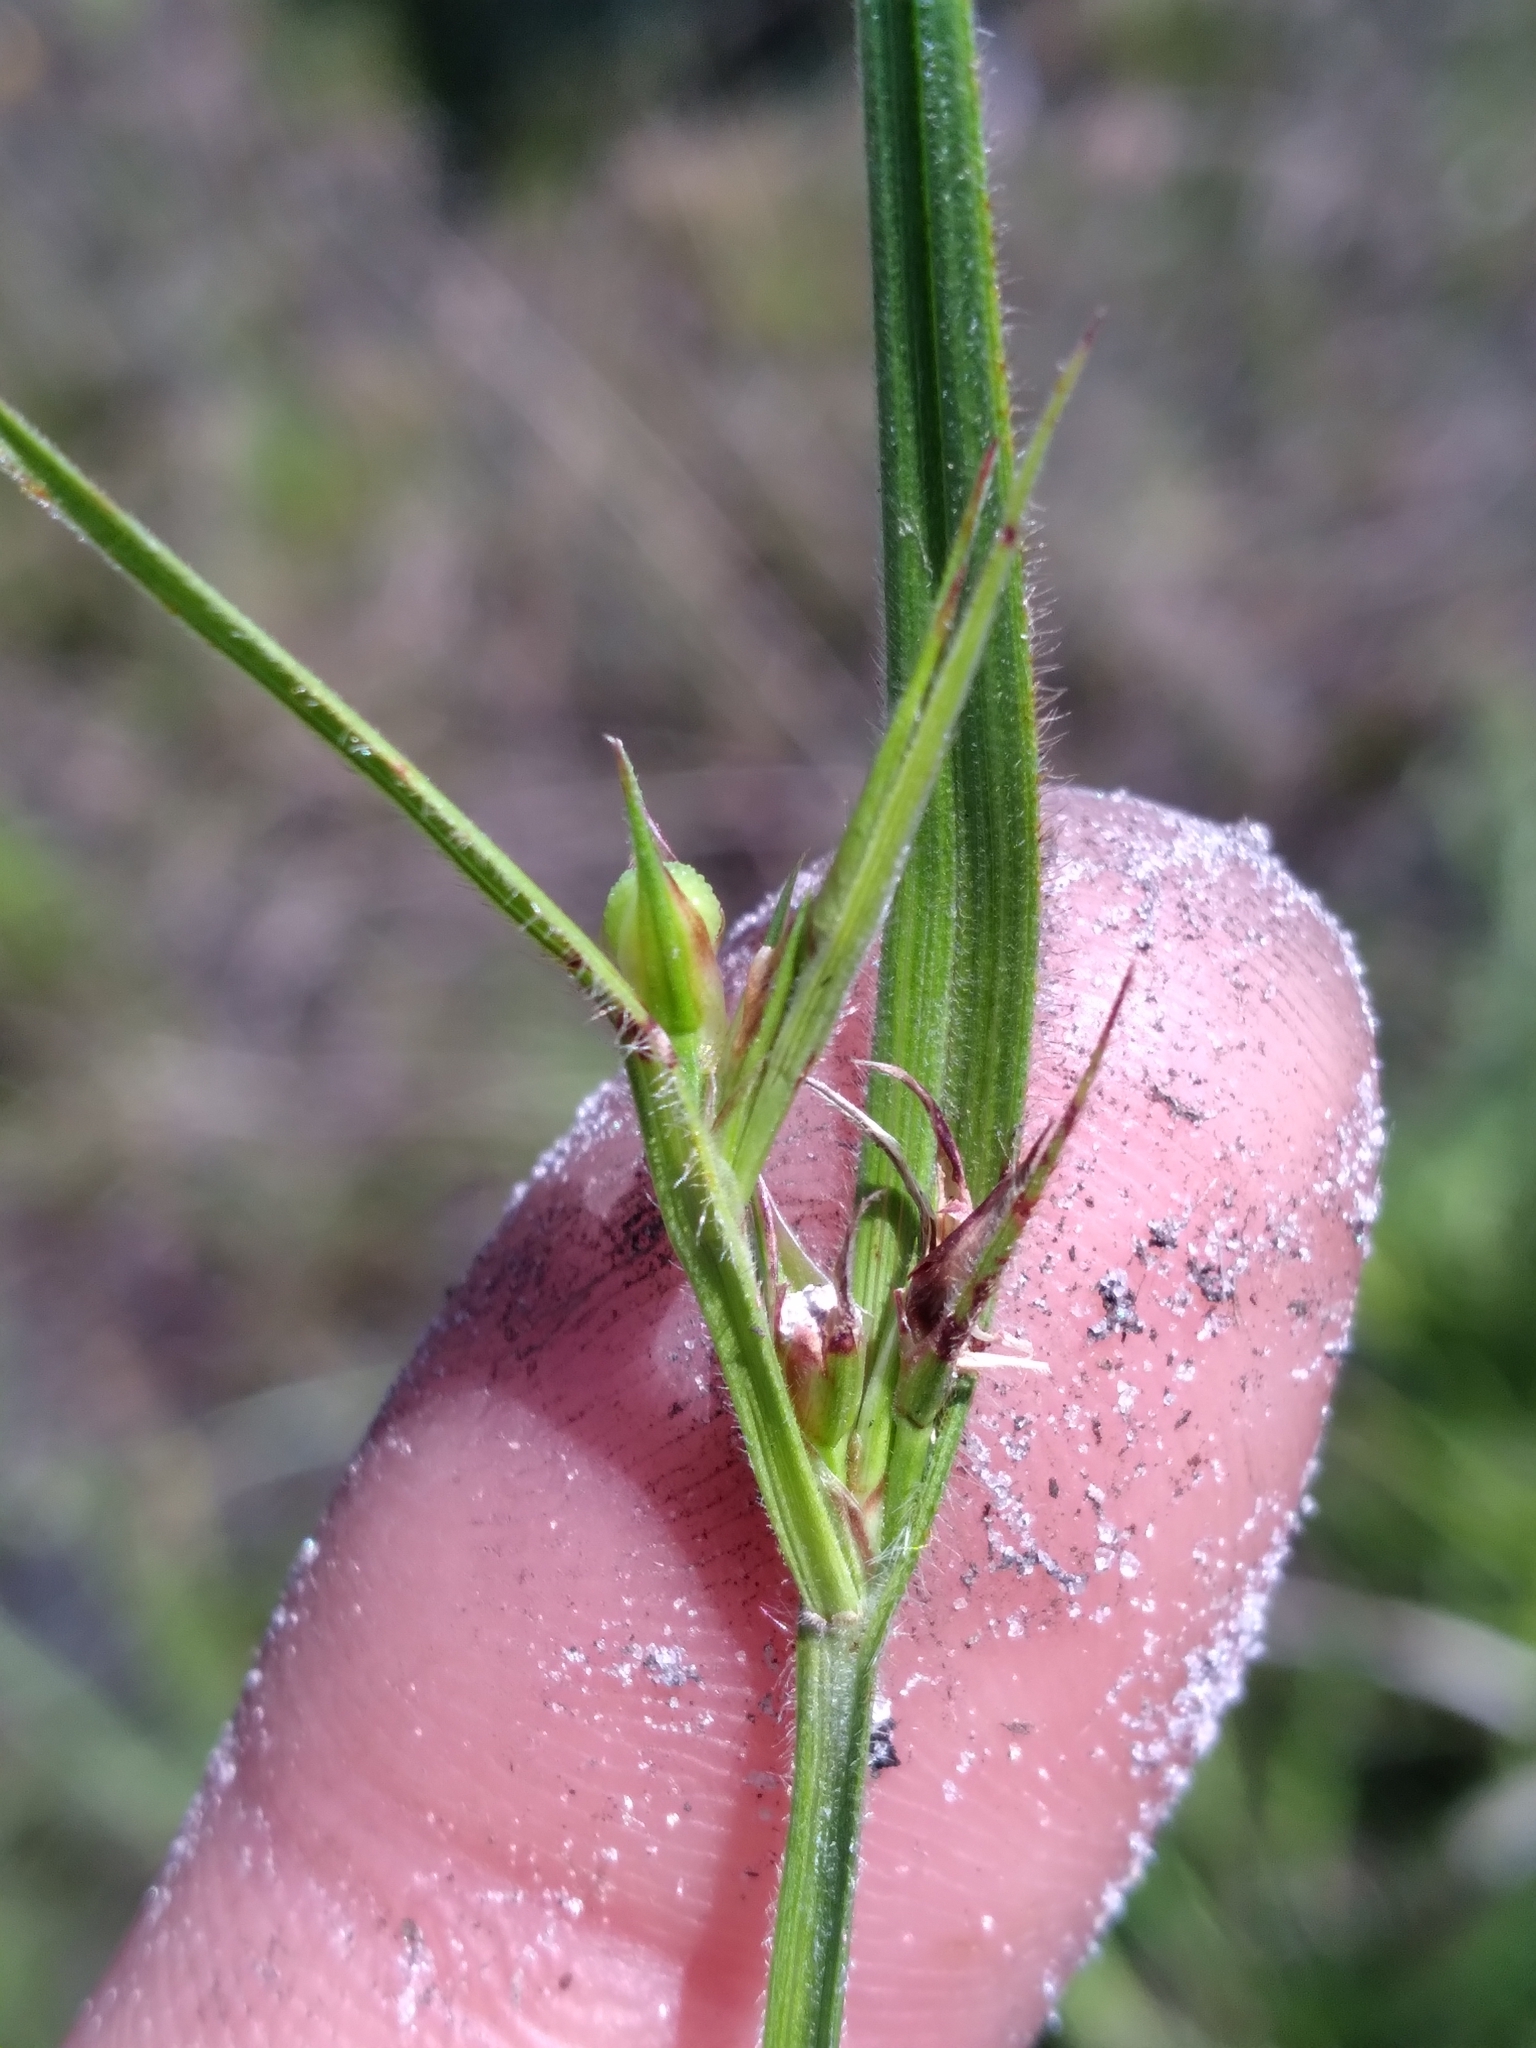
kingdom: Plantae
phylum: Tracheophyta
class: Liliopsida
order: Poales
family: Cyperaceae
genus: Scleria
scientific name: Scleria ciliata
